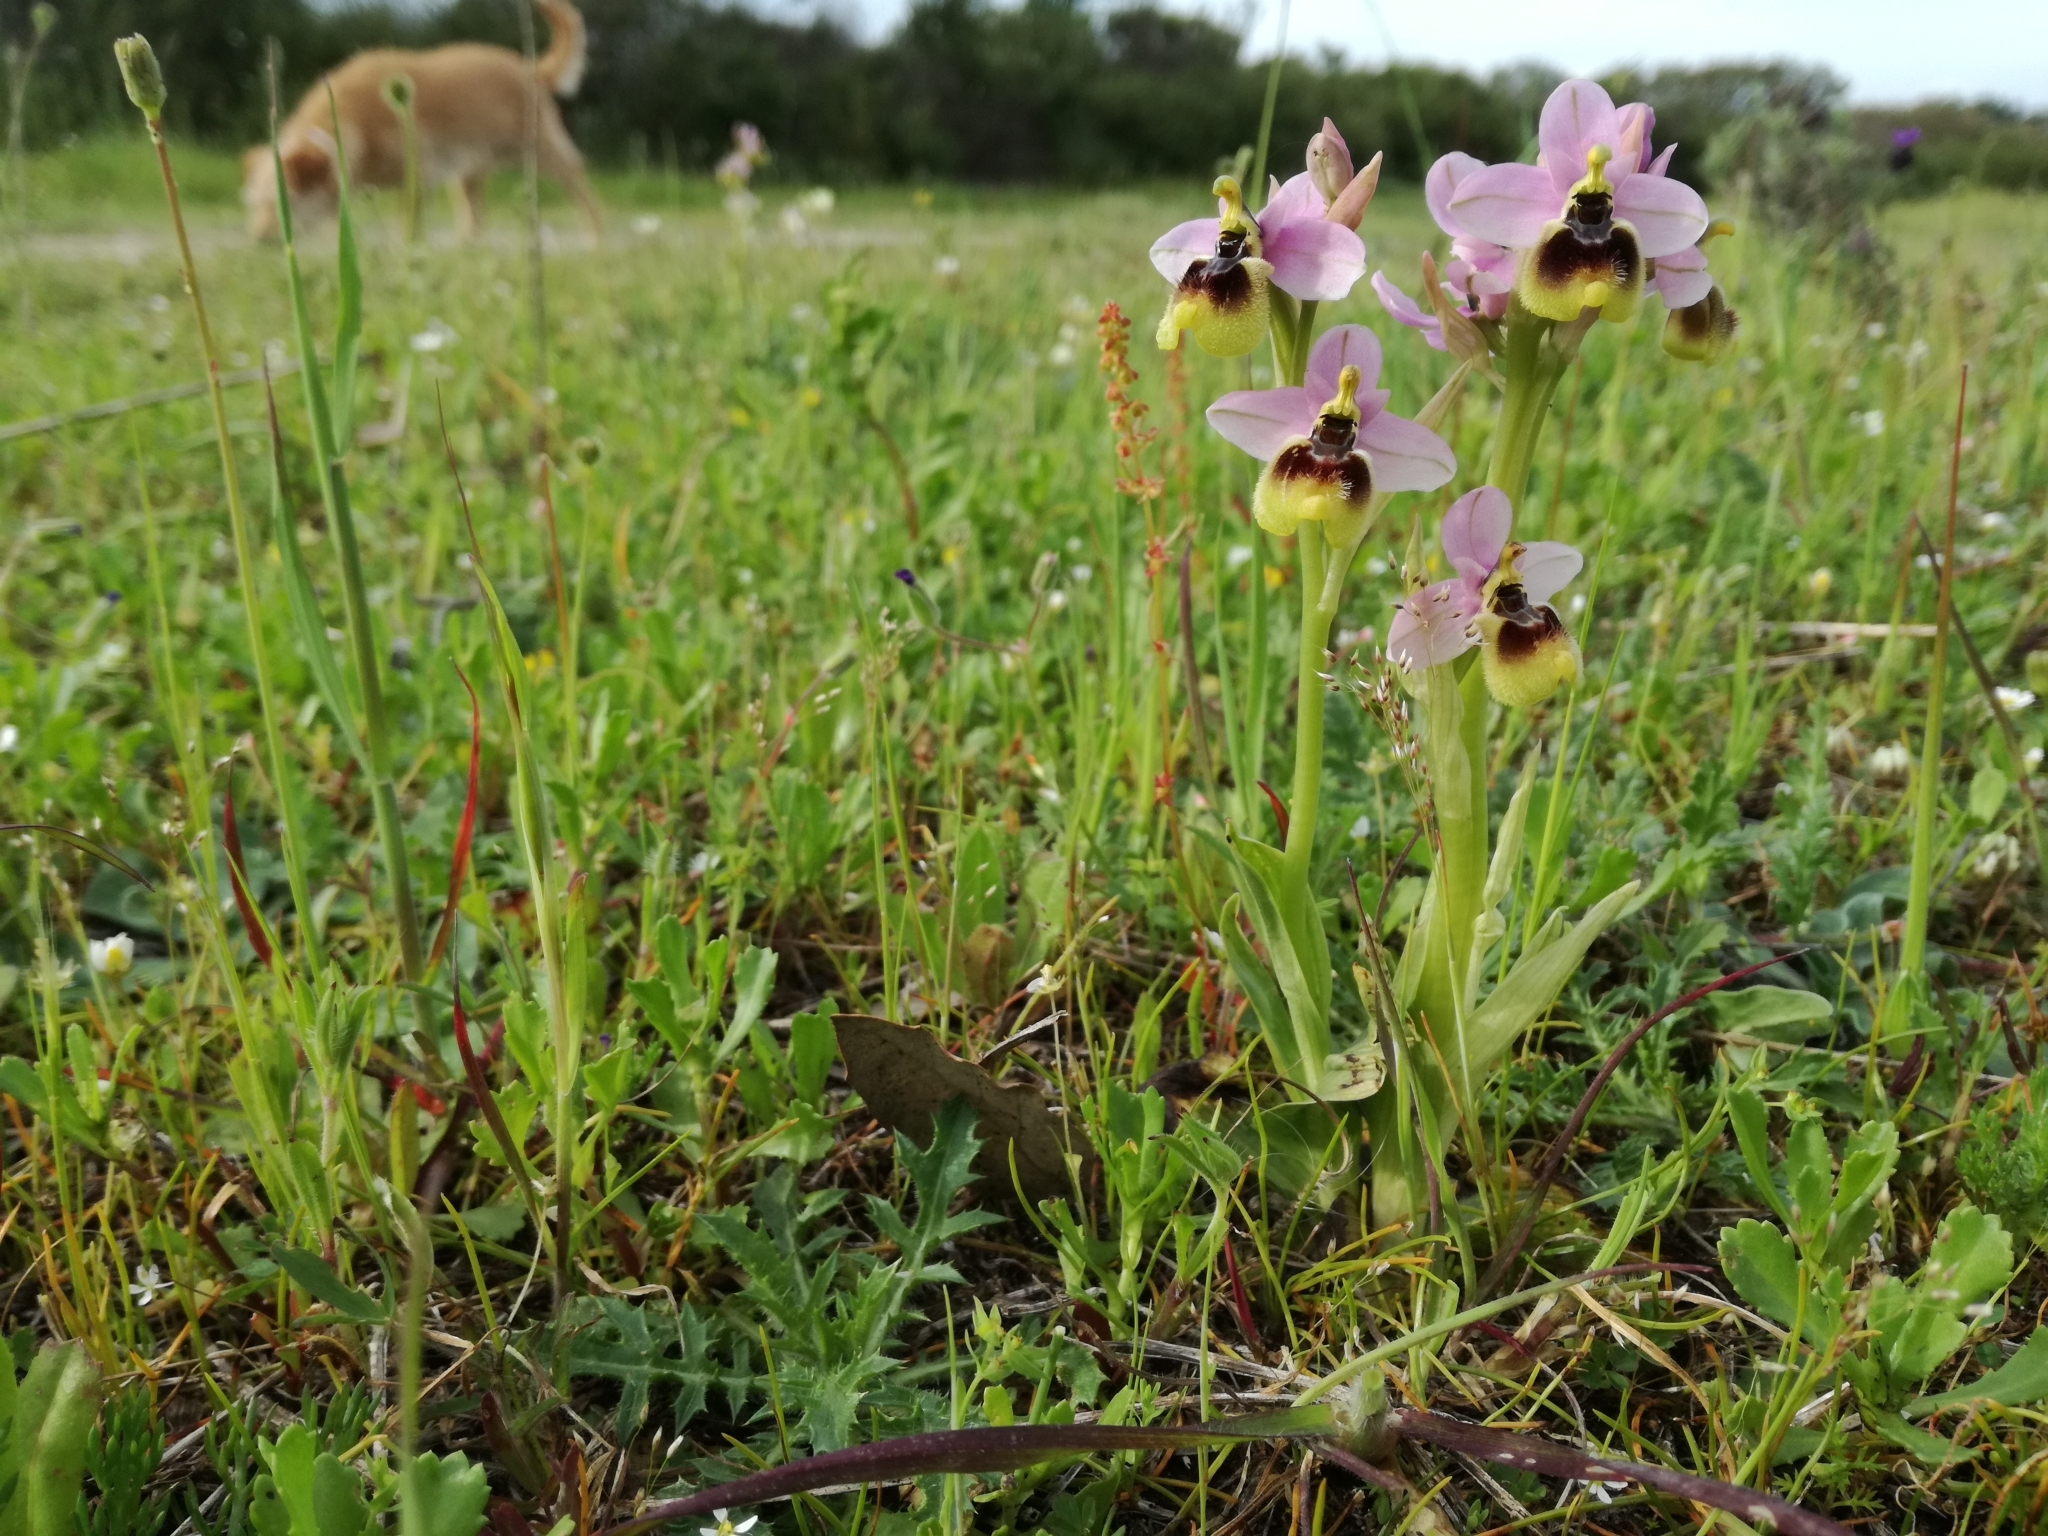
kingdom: Plantae
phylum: Tracheophyta
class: Liliopsida
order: Asparagales
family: Orchidaceae
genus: Ophrys
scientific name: Ophrys tenthredinifera
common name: Sawfly orchid
